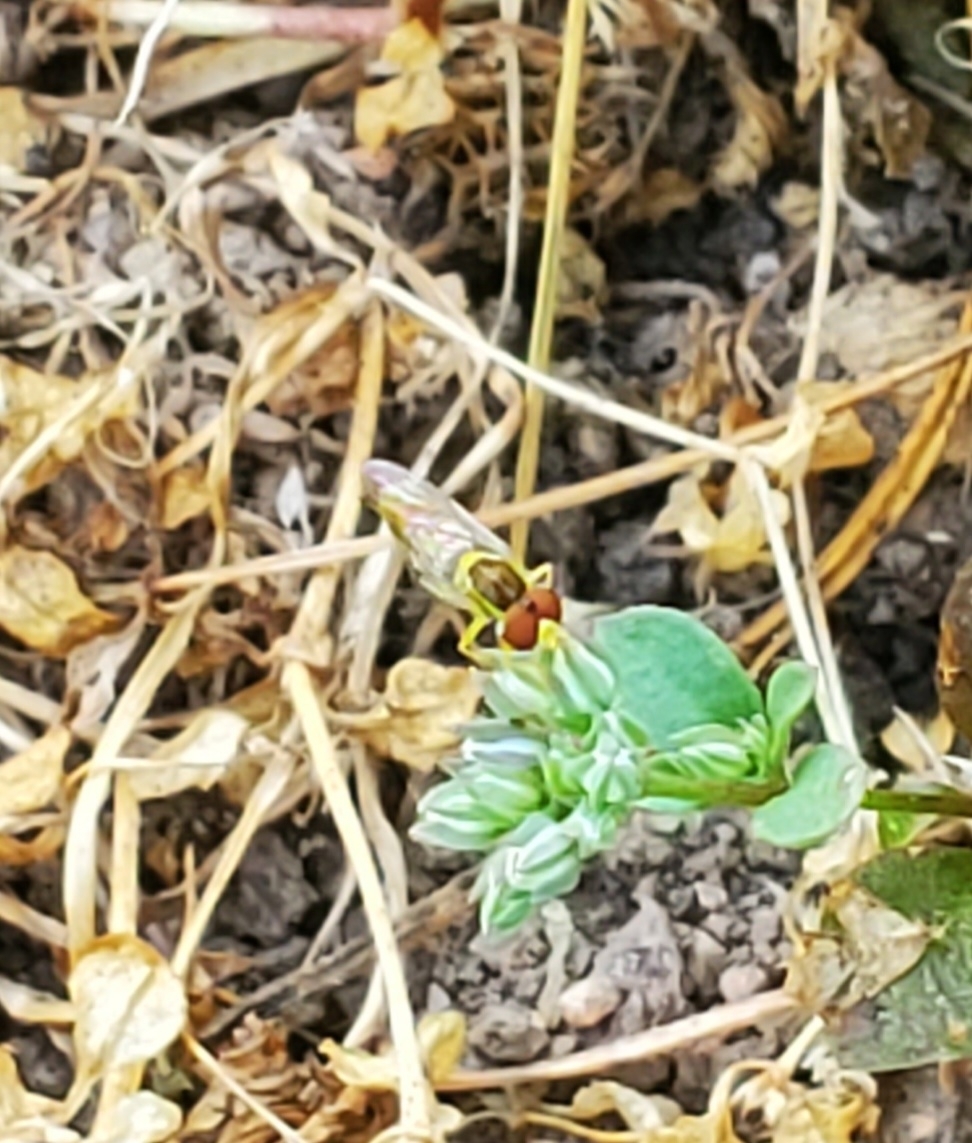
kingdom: Animalia
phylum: Arthropoda
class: Insecta
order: Diptera
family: Syrphidae
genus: Toxomerus
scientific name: Toxomerus marginatus
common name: Syrphid fly
